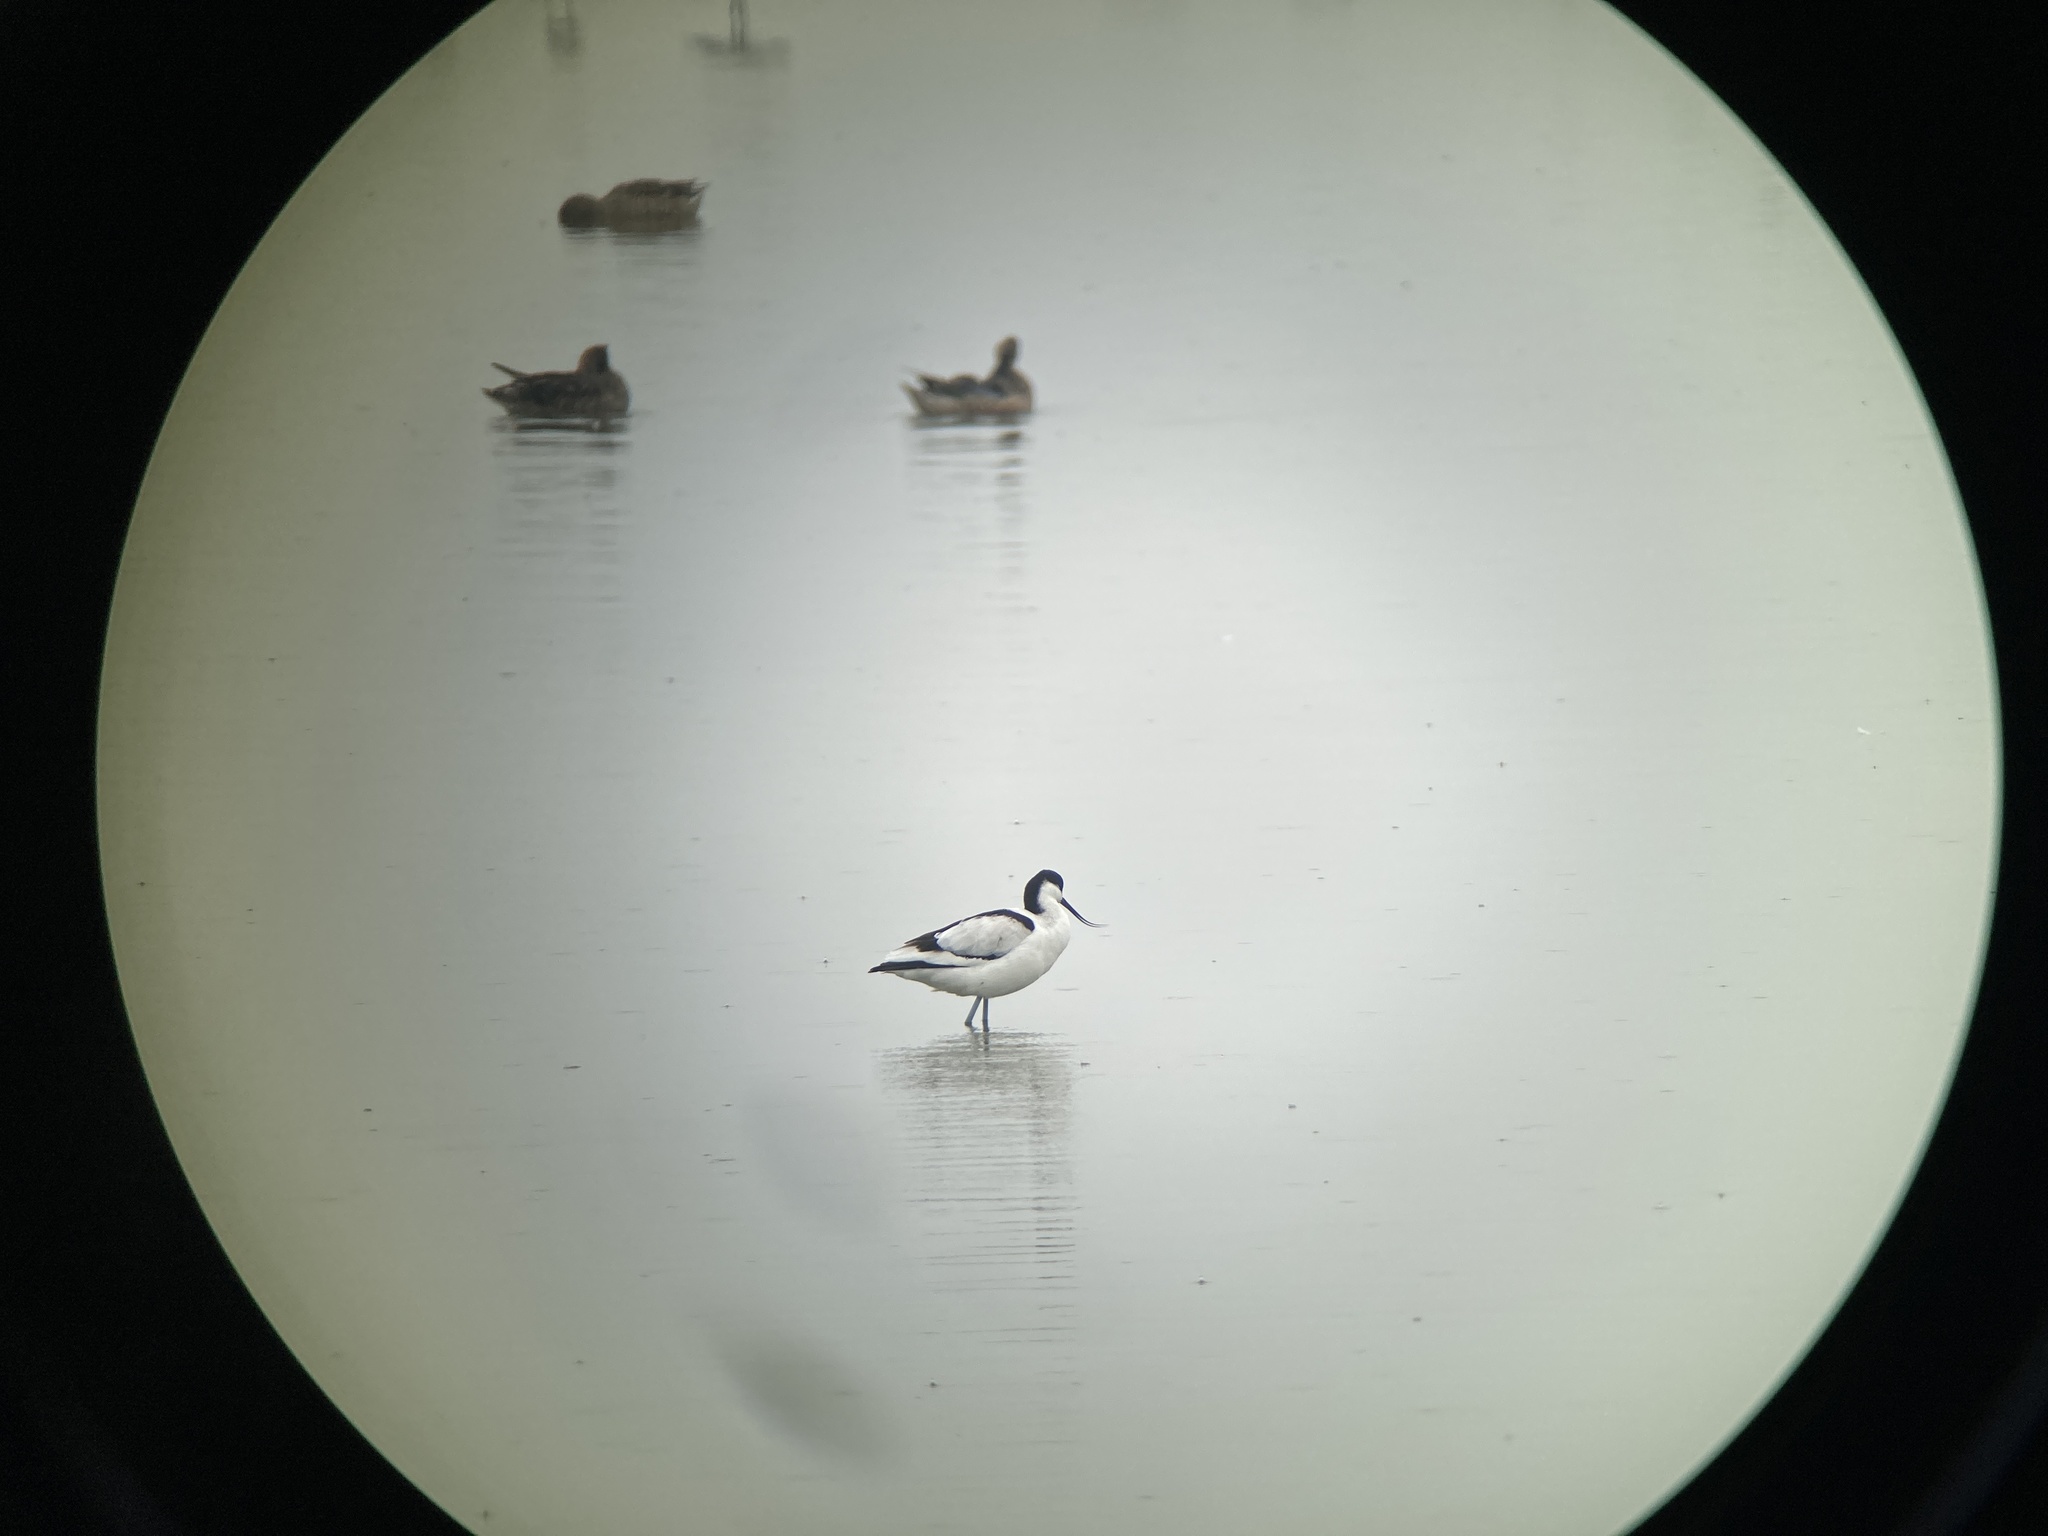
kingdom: Animalia
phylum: Chordata
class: Aves
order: Charadriiformes
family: Recurvirostridae
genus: Recurvirostra
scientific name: Recurvirostra avosetta
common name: Pied avocet
